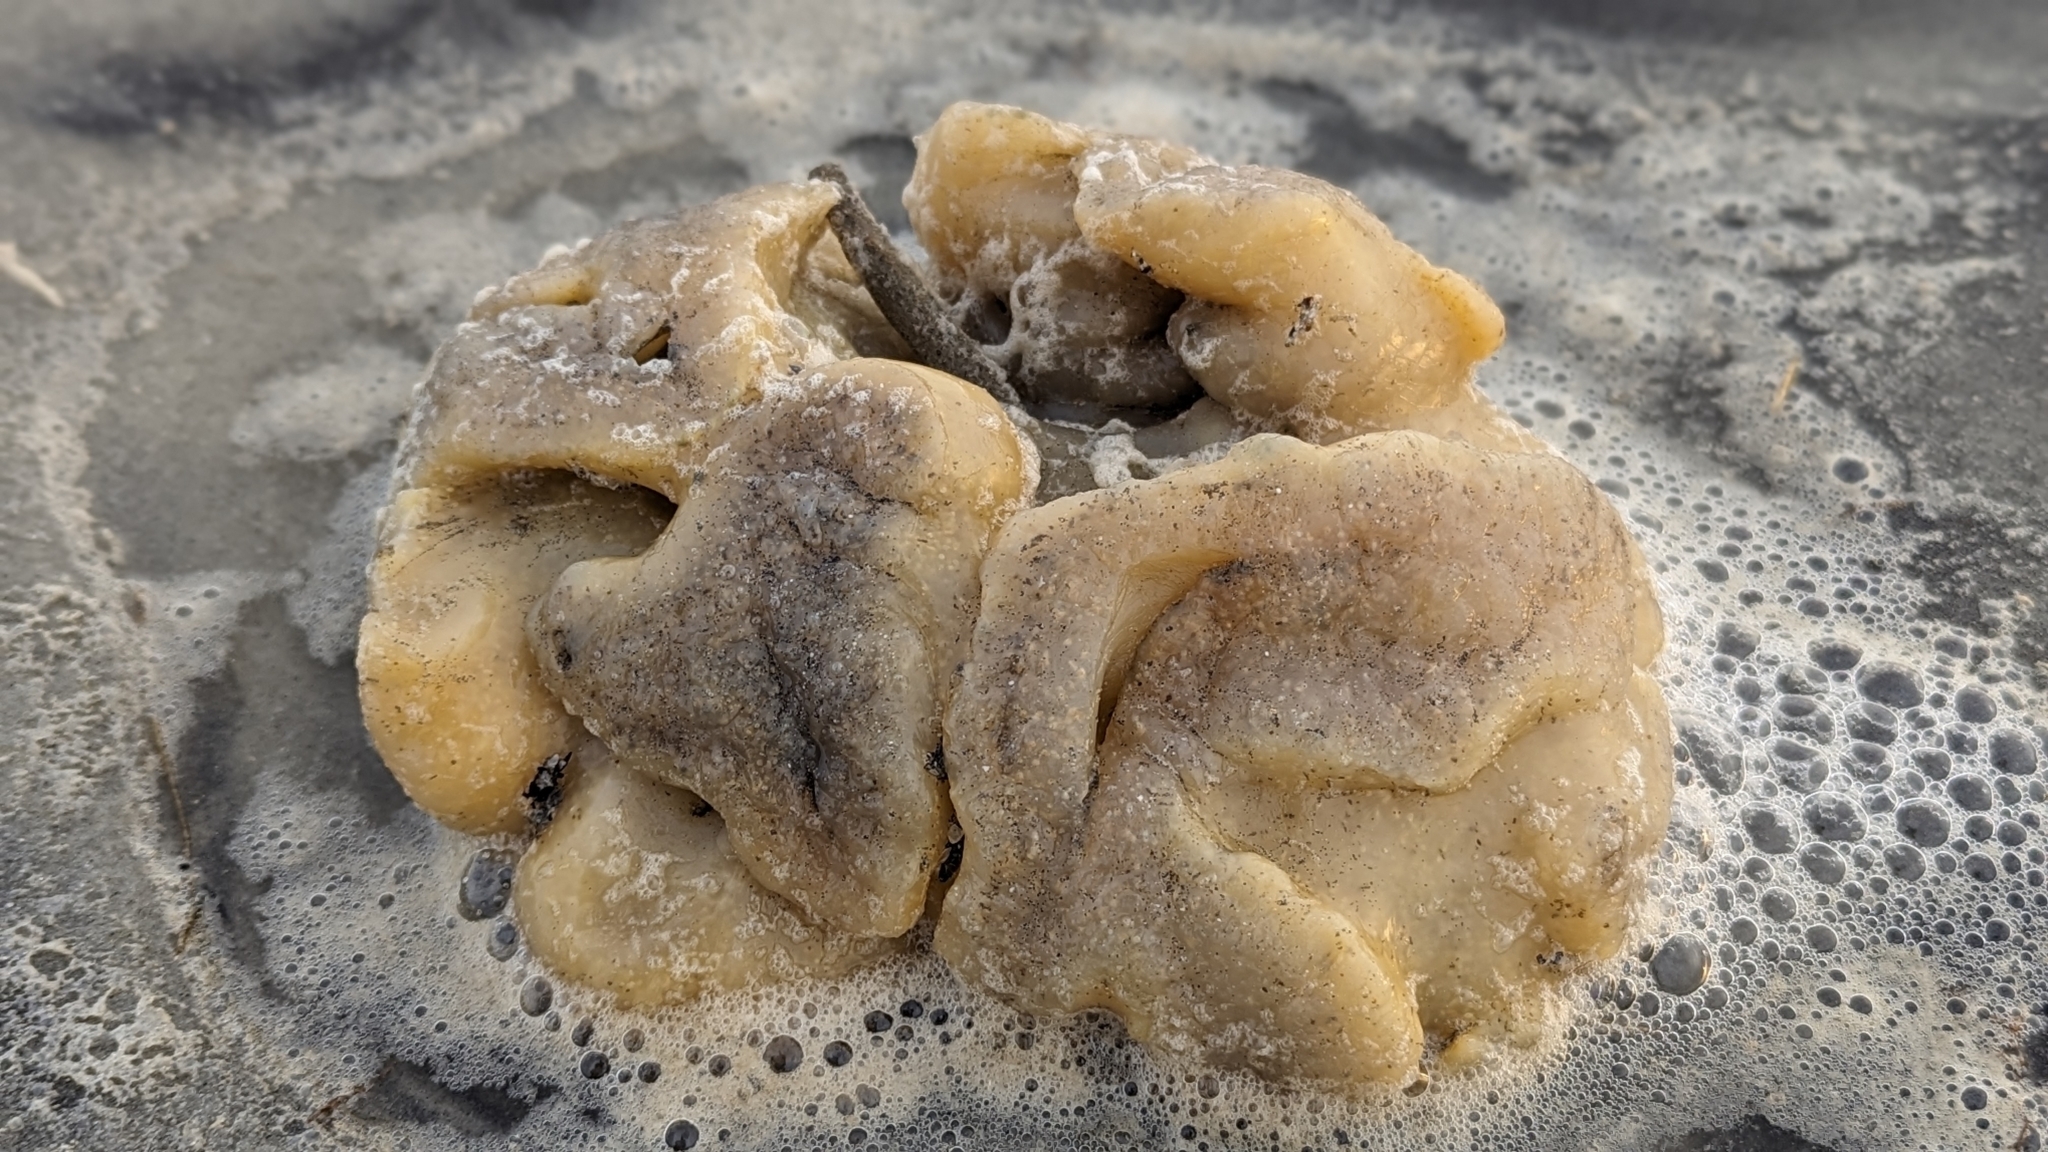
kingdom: Animalia
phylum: Chordata
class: Ascidiacea
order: Aplousobranchia
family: Polyclinidae
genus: Aplidium
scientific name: Aplidium stellatum
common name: Atlantic sea pork
